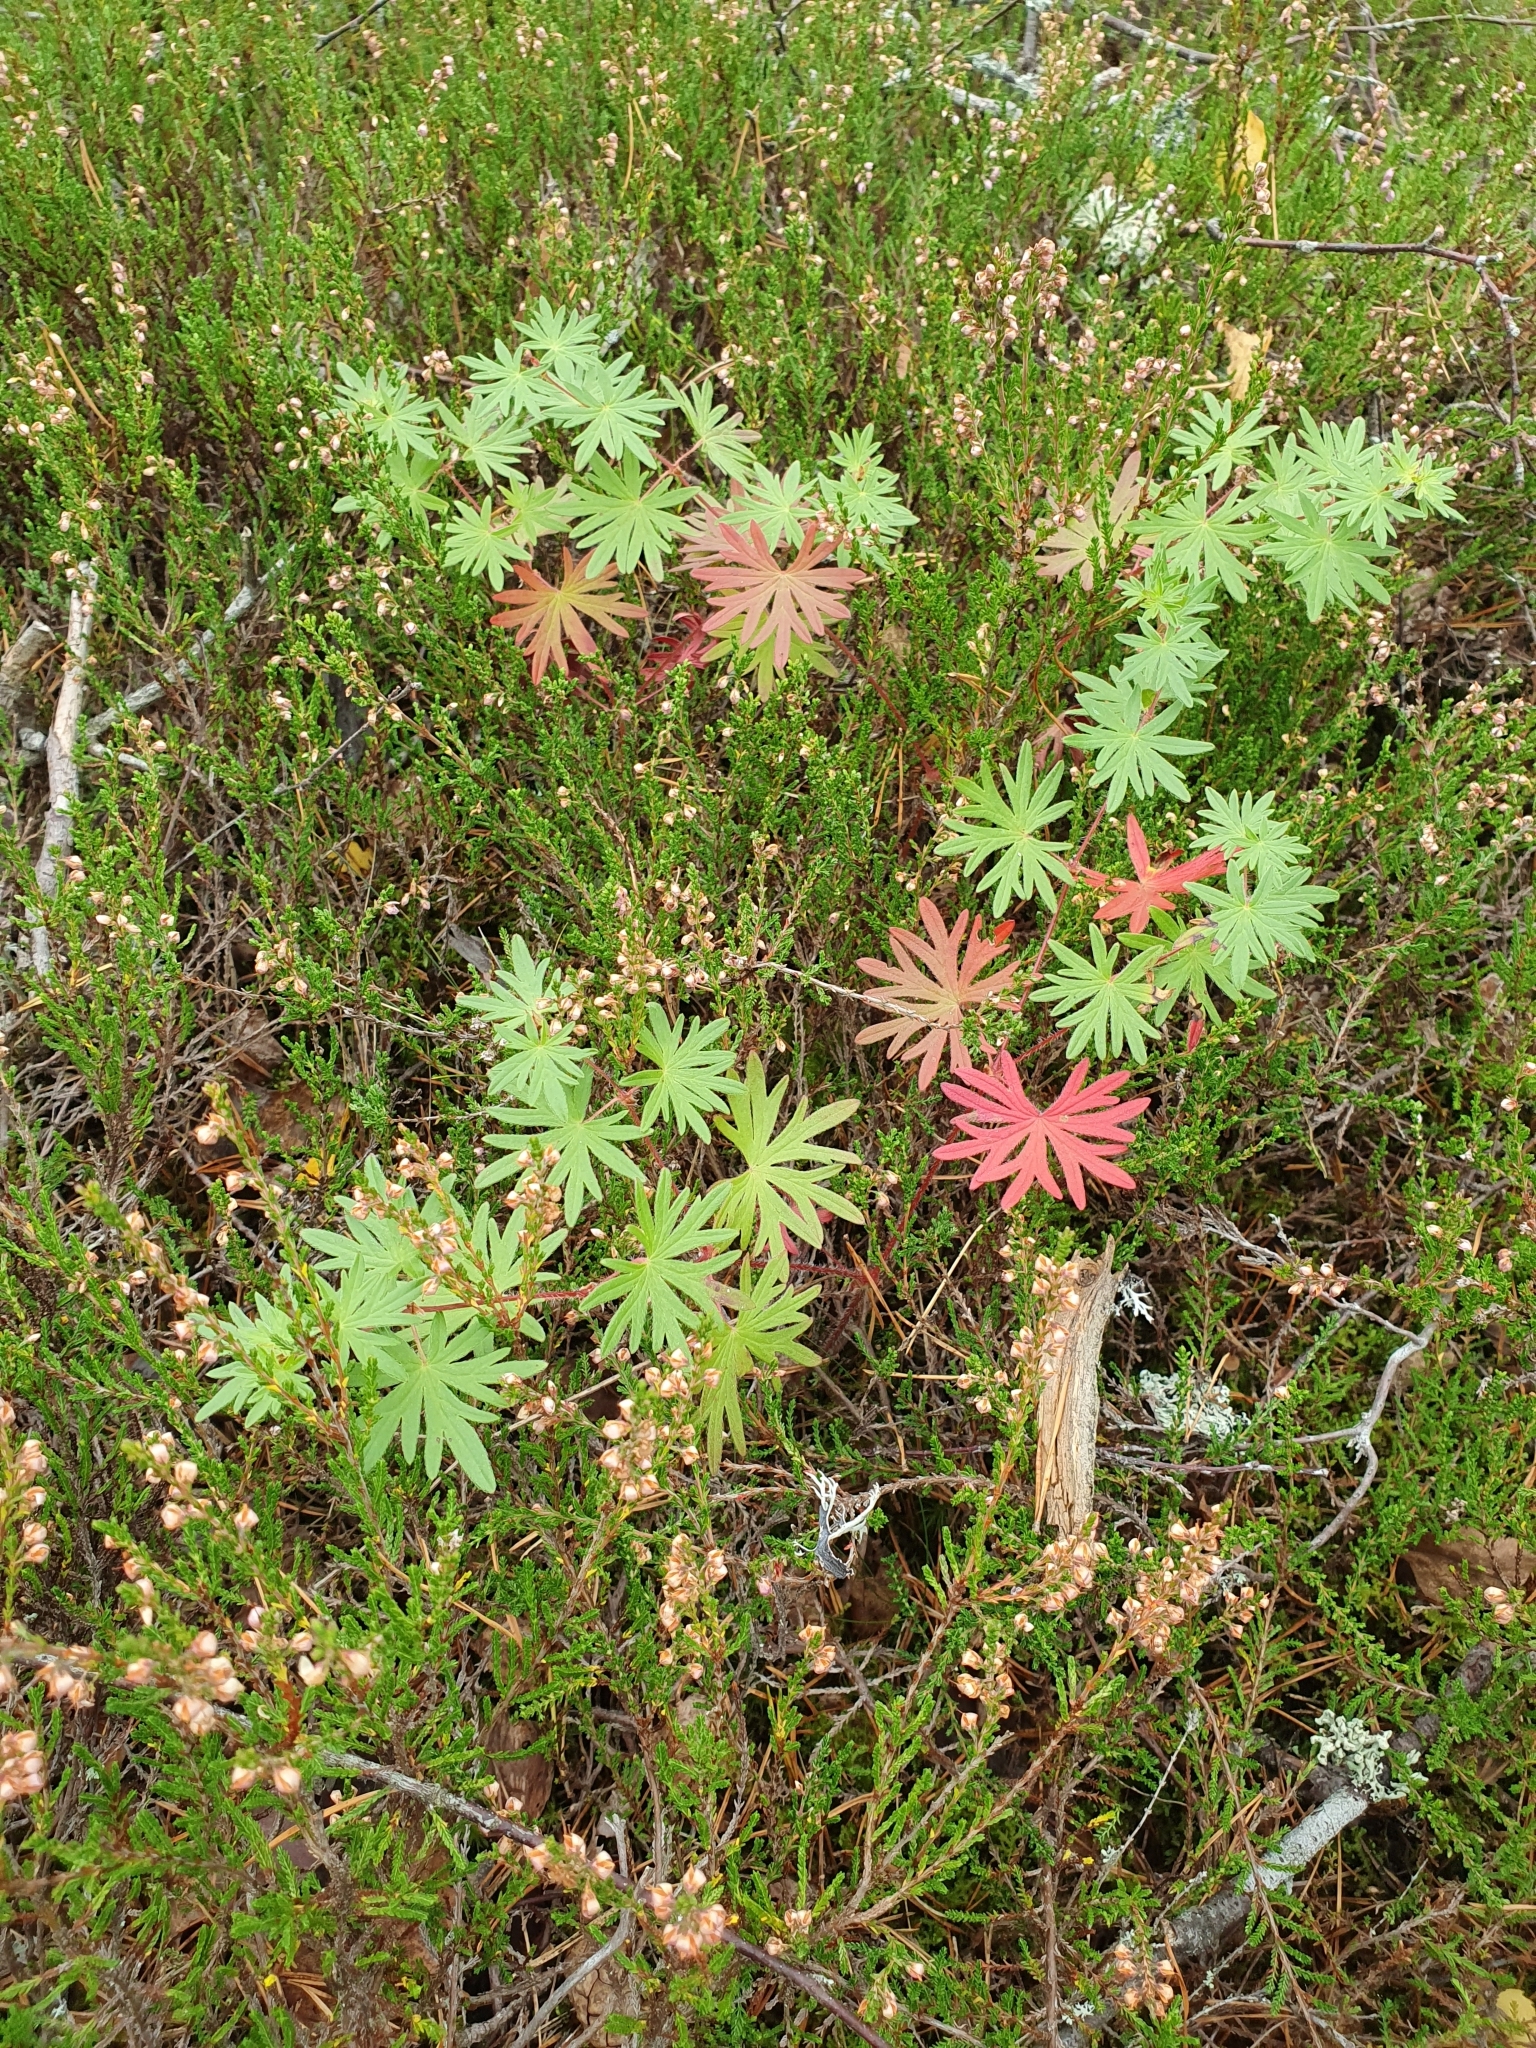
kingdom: Plantae
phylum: Tracheophyta
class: Magnoliopsida
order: Geraniales
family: Geraniaceae
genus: Geranium
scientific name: Geranium sanguineum
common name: Bloody crane's-bill
